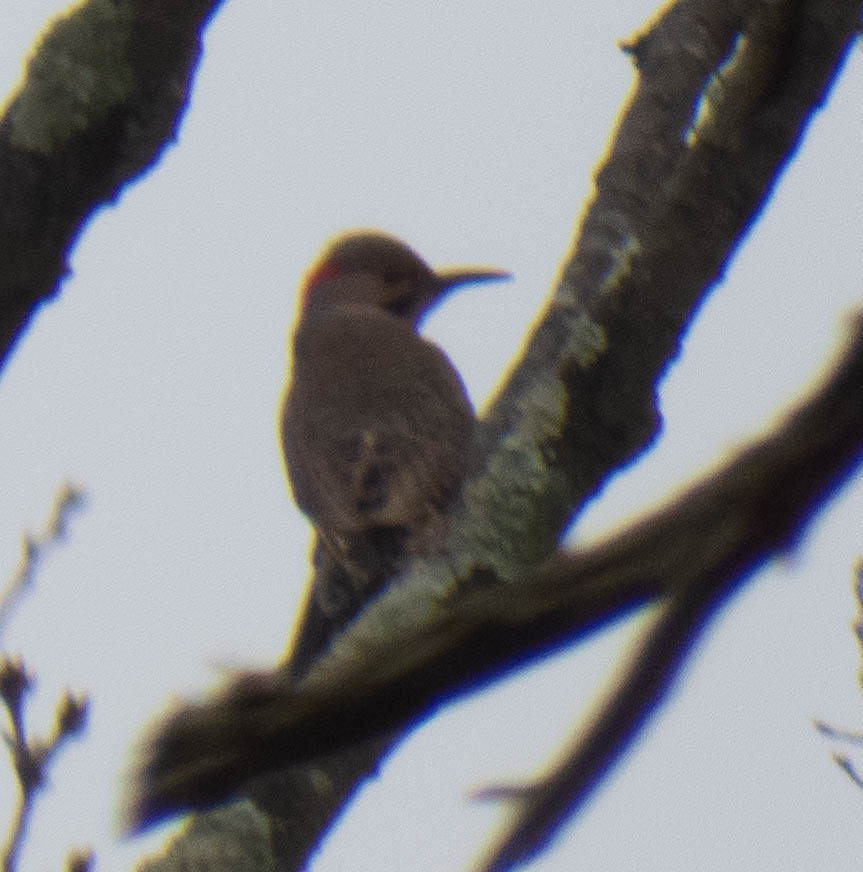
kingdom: Animalia
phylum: Chordata
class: Aves
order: Piciformes
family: Picidae
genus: Colaptes
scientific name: Colaptes auratus
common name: Northern flicker
